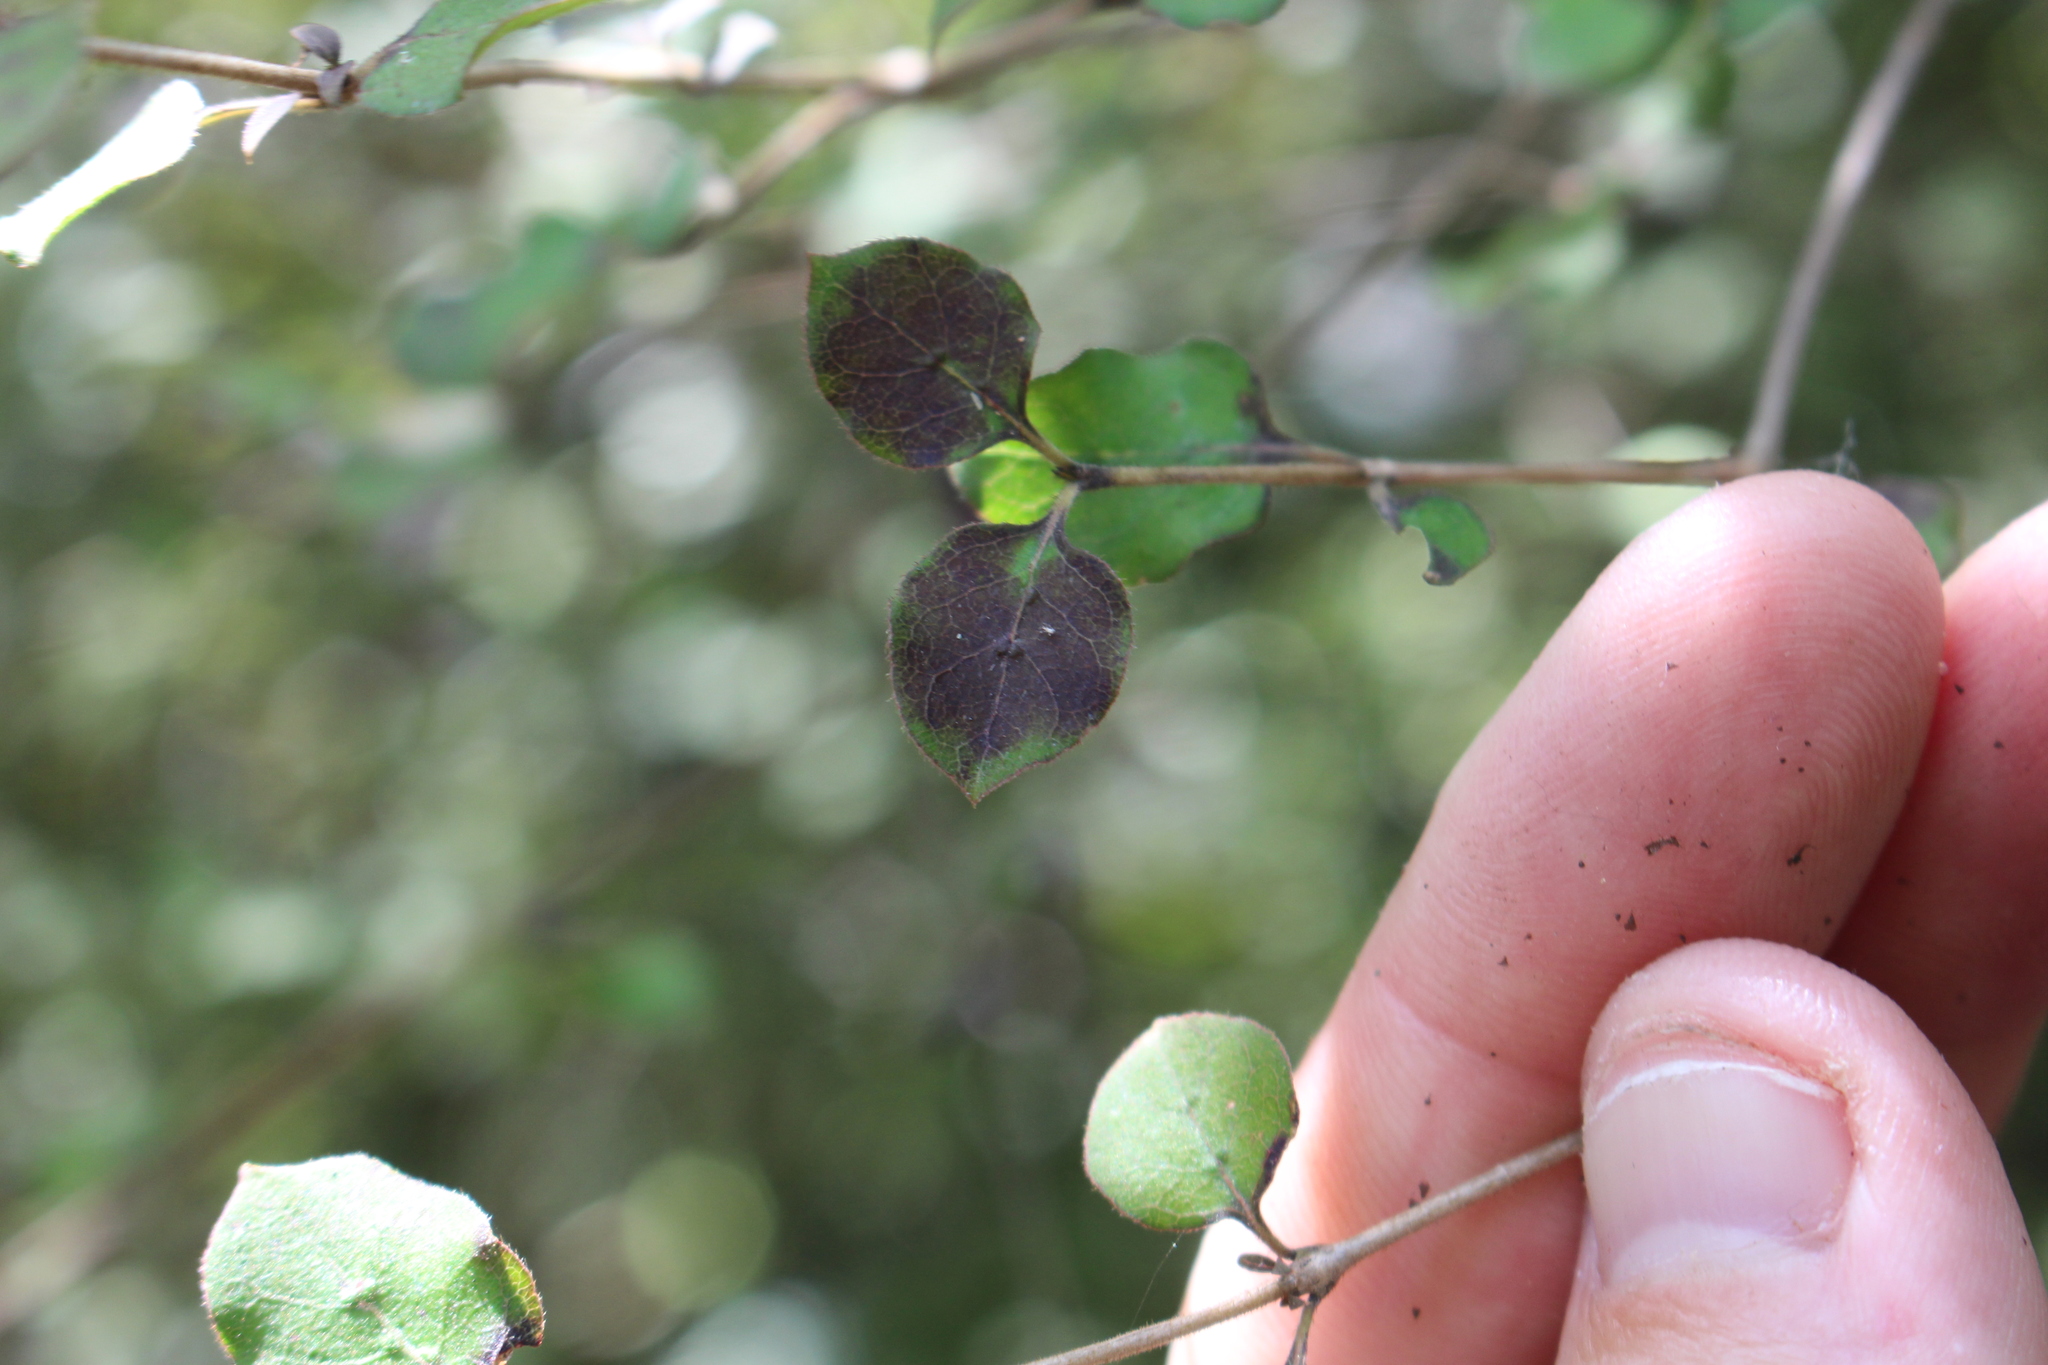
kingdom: Plantae
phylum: Tracheophyta
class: Magnoliopsida
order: Gentianales
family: Rubiaceae
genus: Coprosma
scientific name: Coprosma rotundifolia
